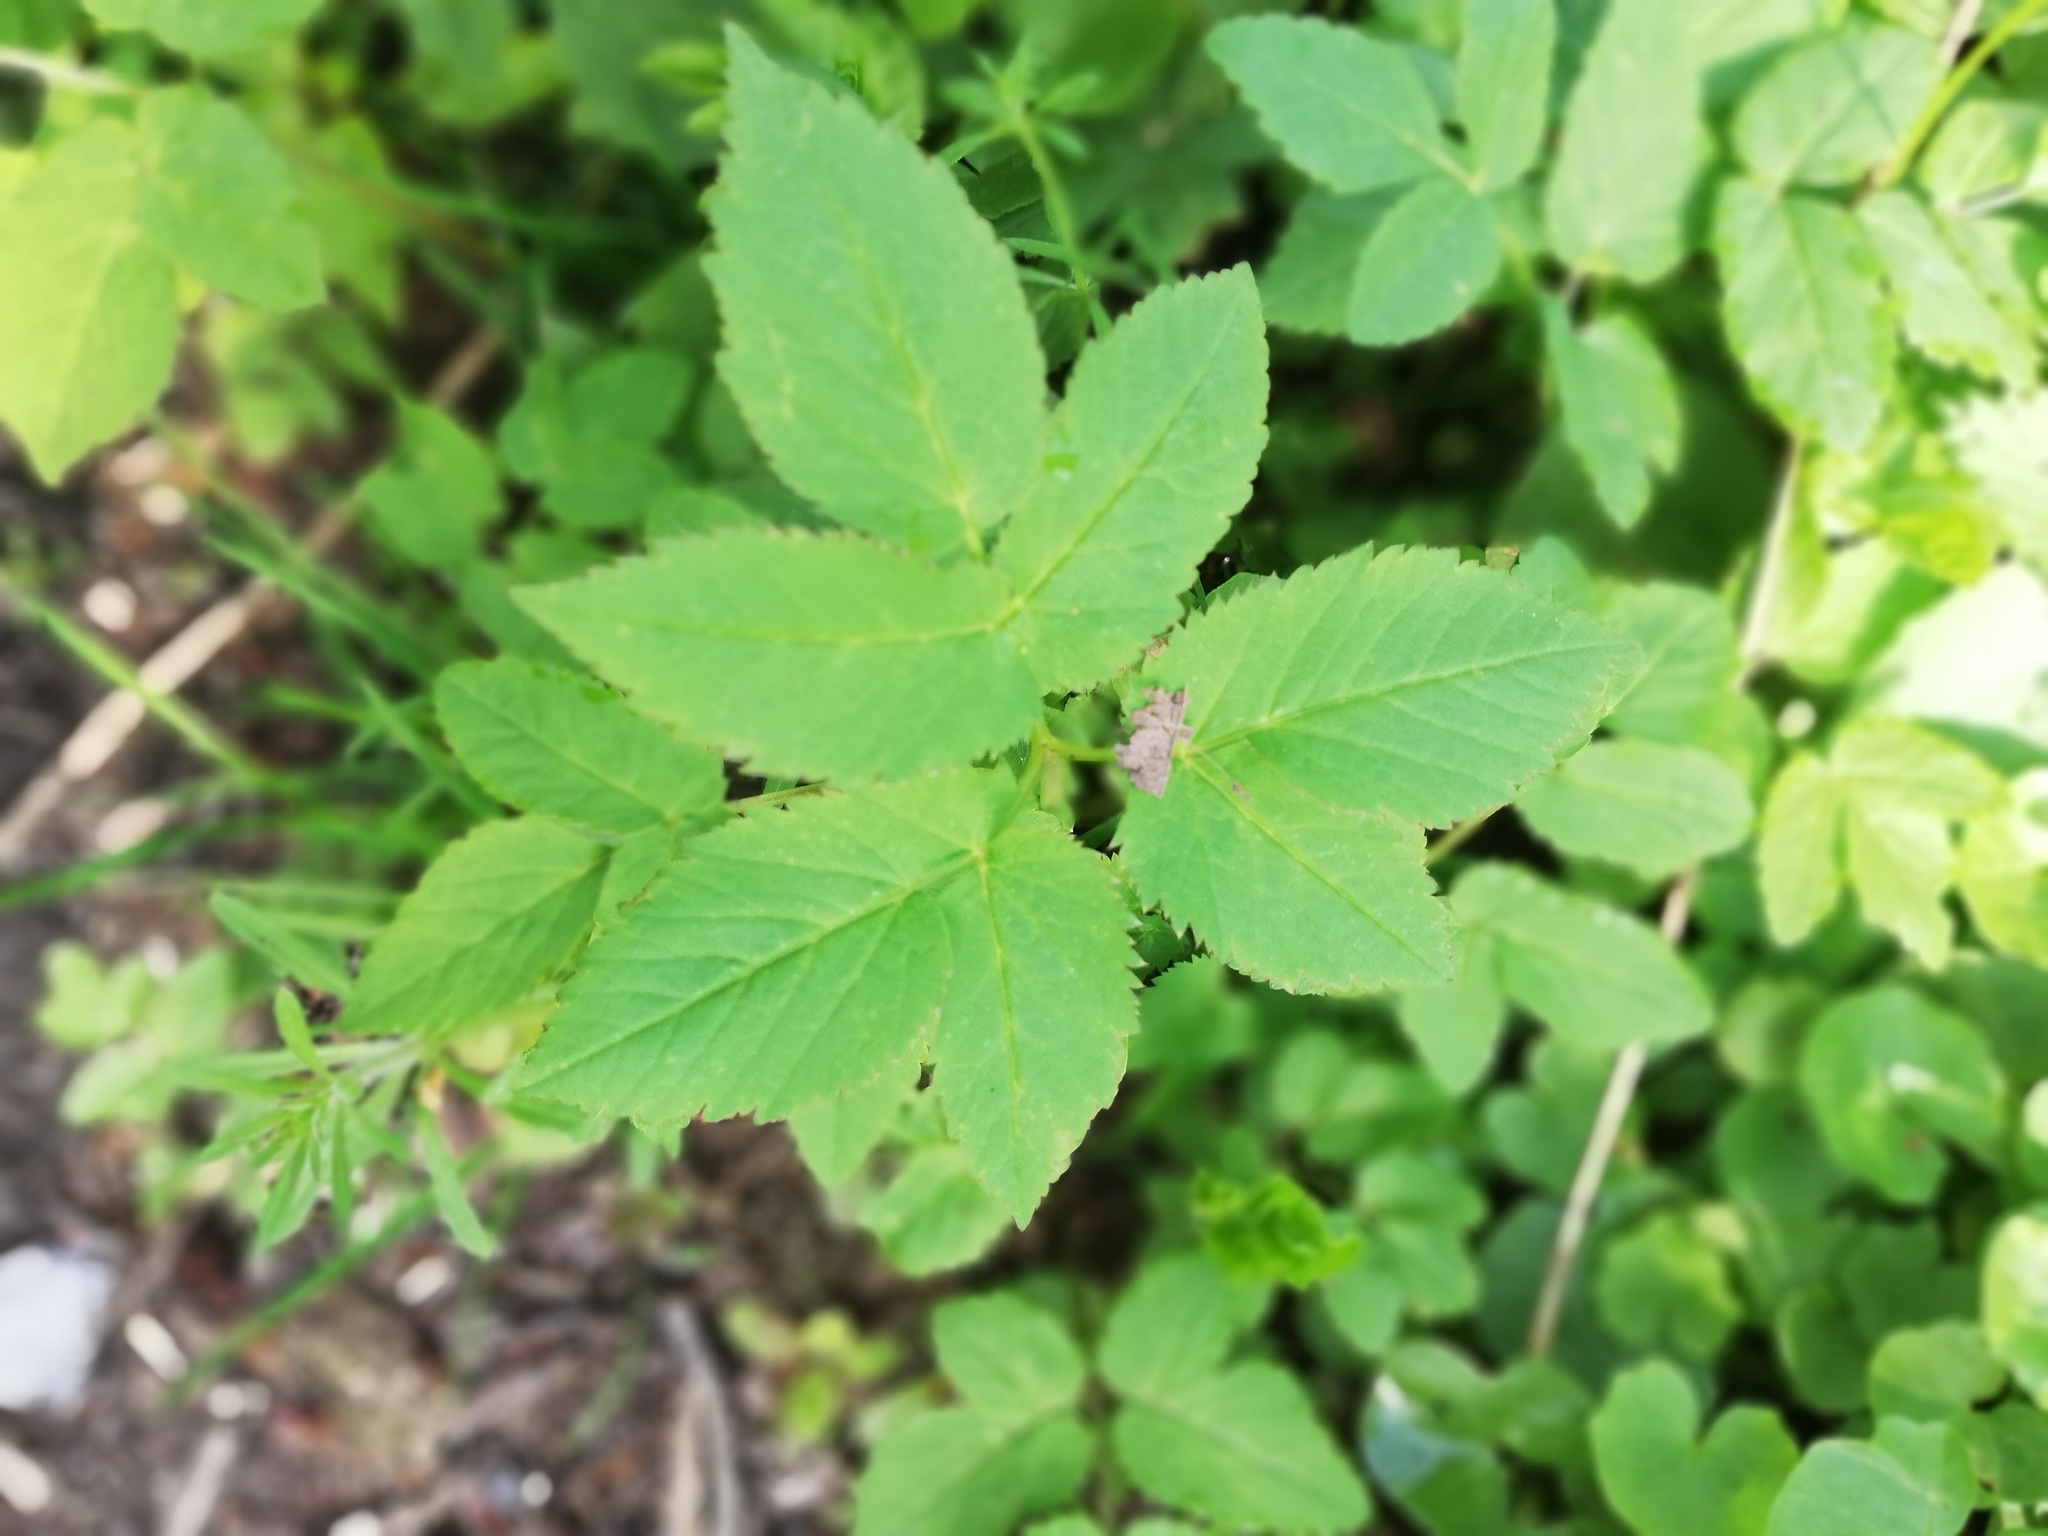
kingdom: Plantae
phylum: Tracheophyta
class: Magnoliopsida
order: Apiales
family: Apiaceae
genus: Aegopodium
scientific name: Aegopodium podagraria
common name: Ground-elder
